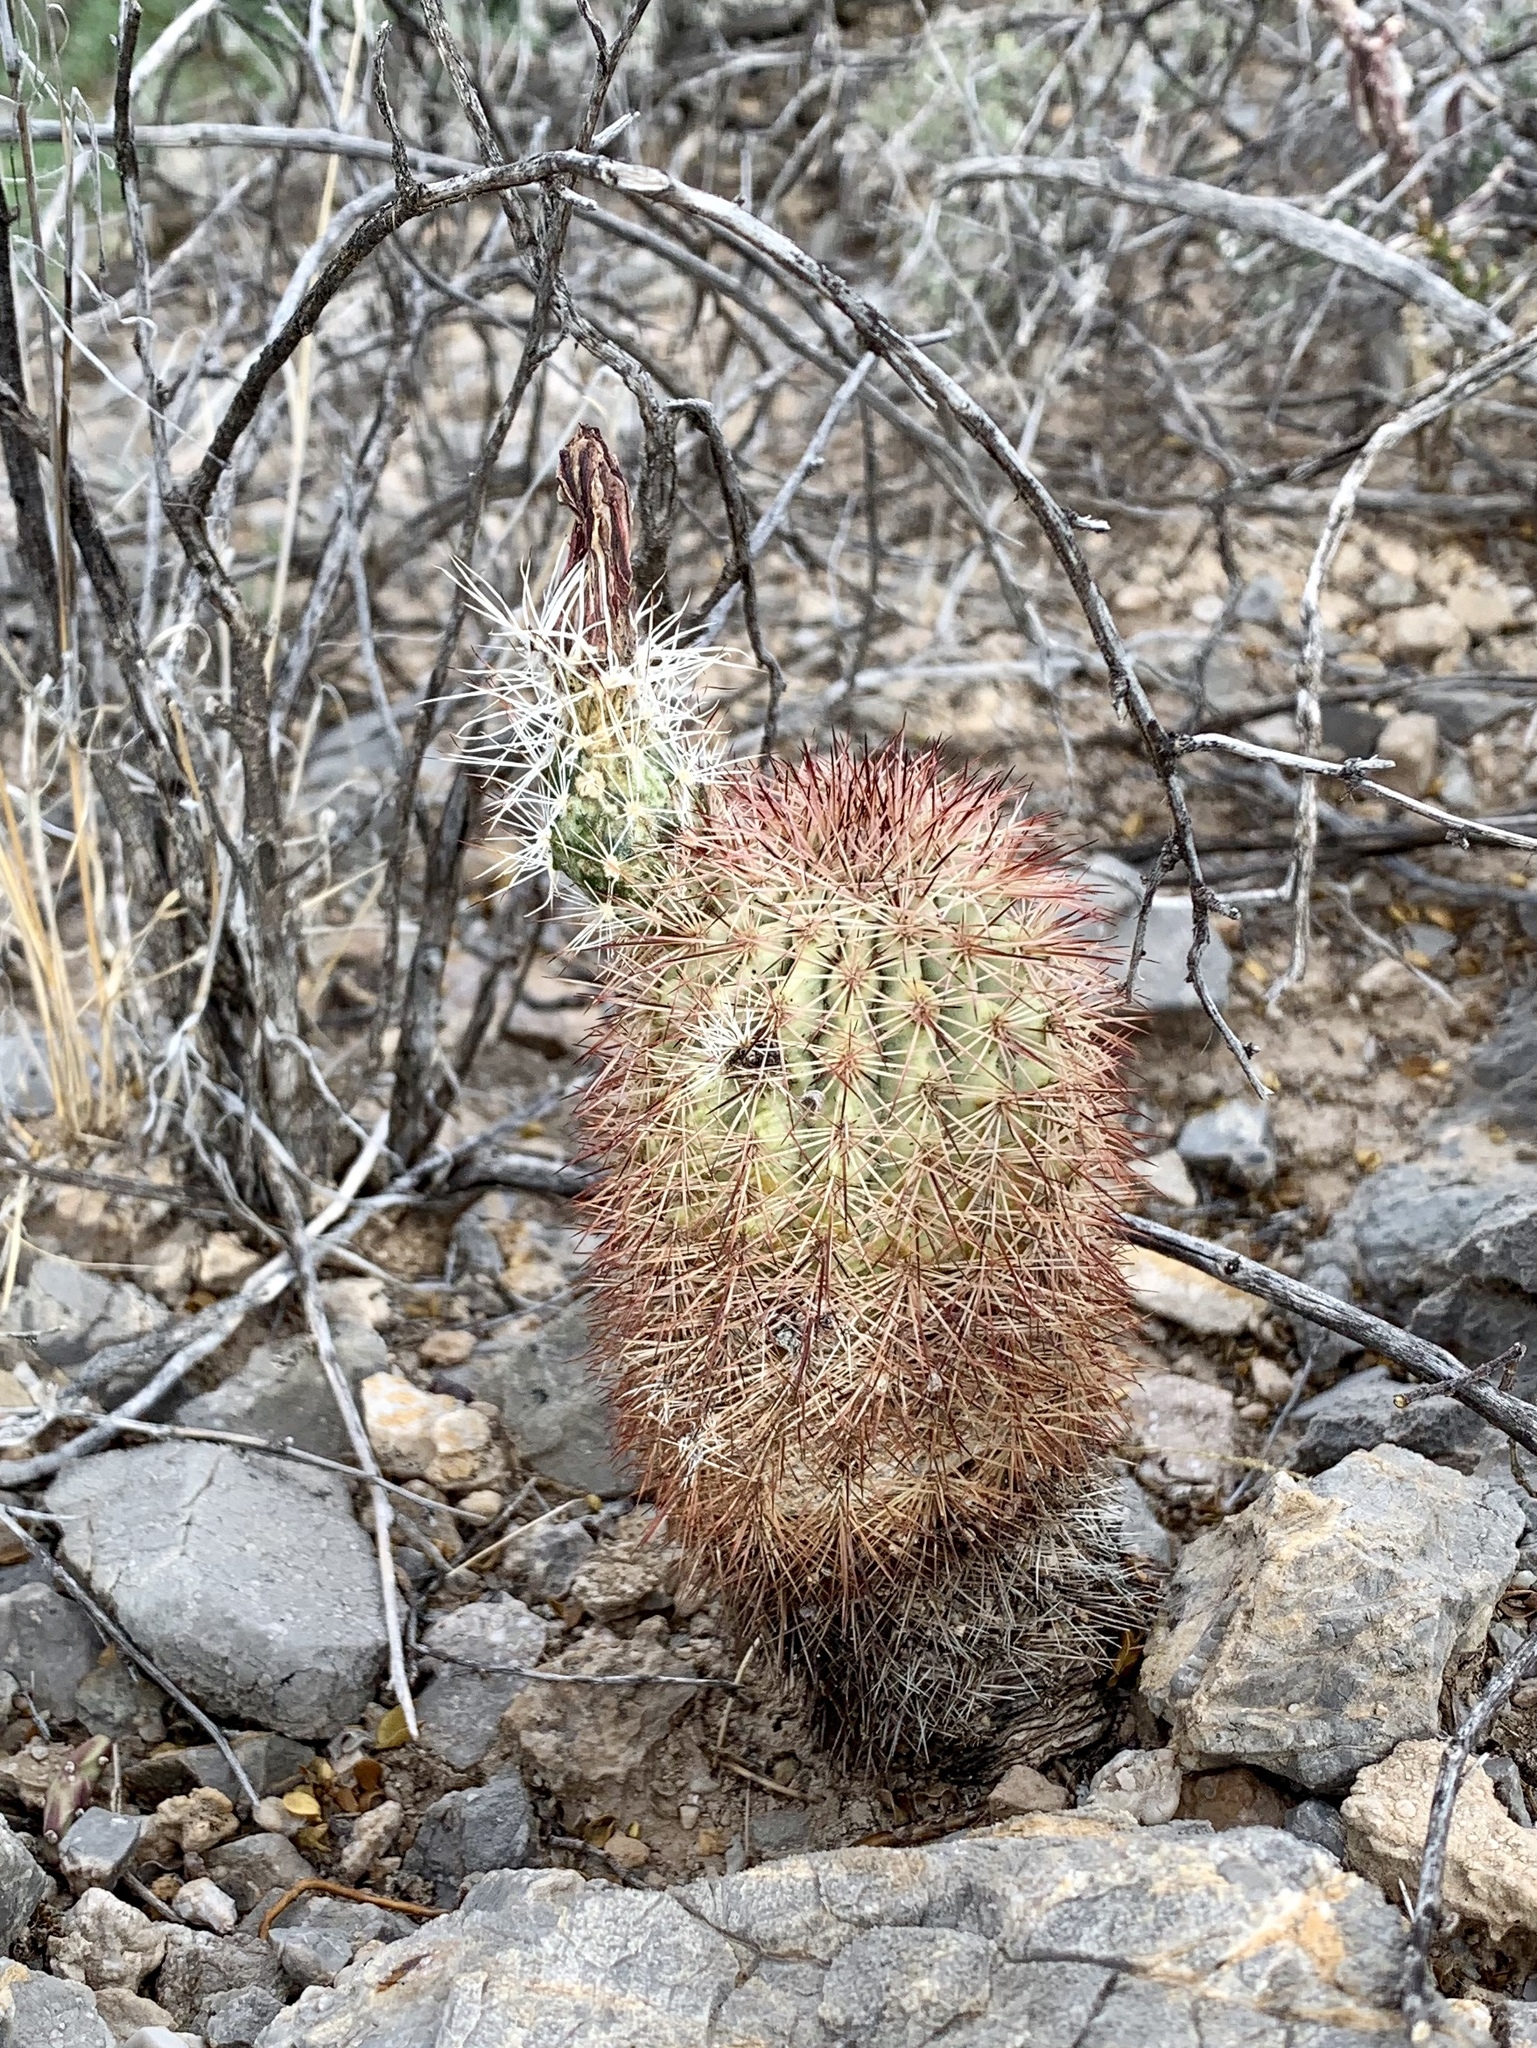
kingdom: Plantae
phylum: Tracheophyta
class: Magnoliopsida
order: Caryophyllales
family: Cactaceae
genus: Echinocereus
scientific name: Echinocereus dasyacanthus
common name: Spiny hedgehog cactus
